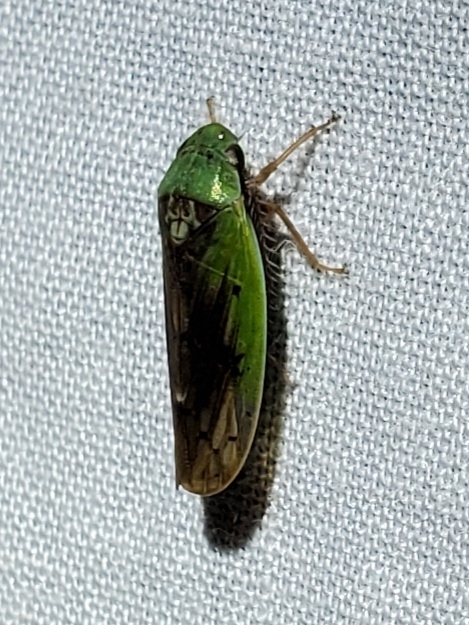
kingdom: Animalia
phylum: Arthropoda
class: Insecta
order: Hemiptera
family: Cicadellidae
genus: Ponana
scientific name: Ponana pectoralis
